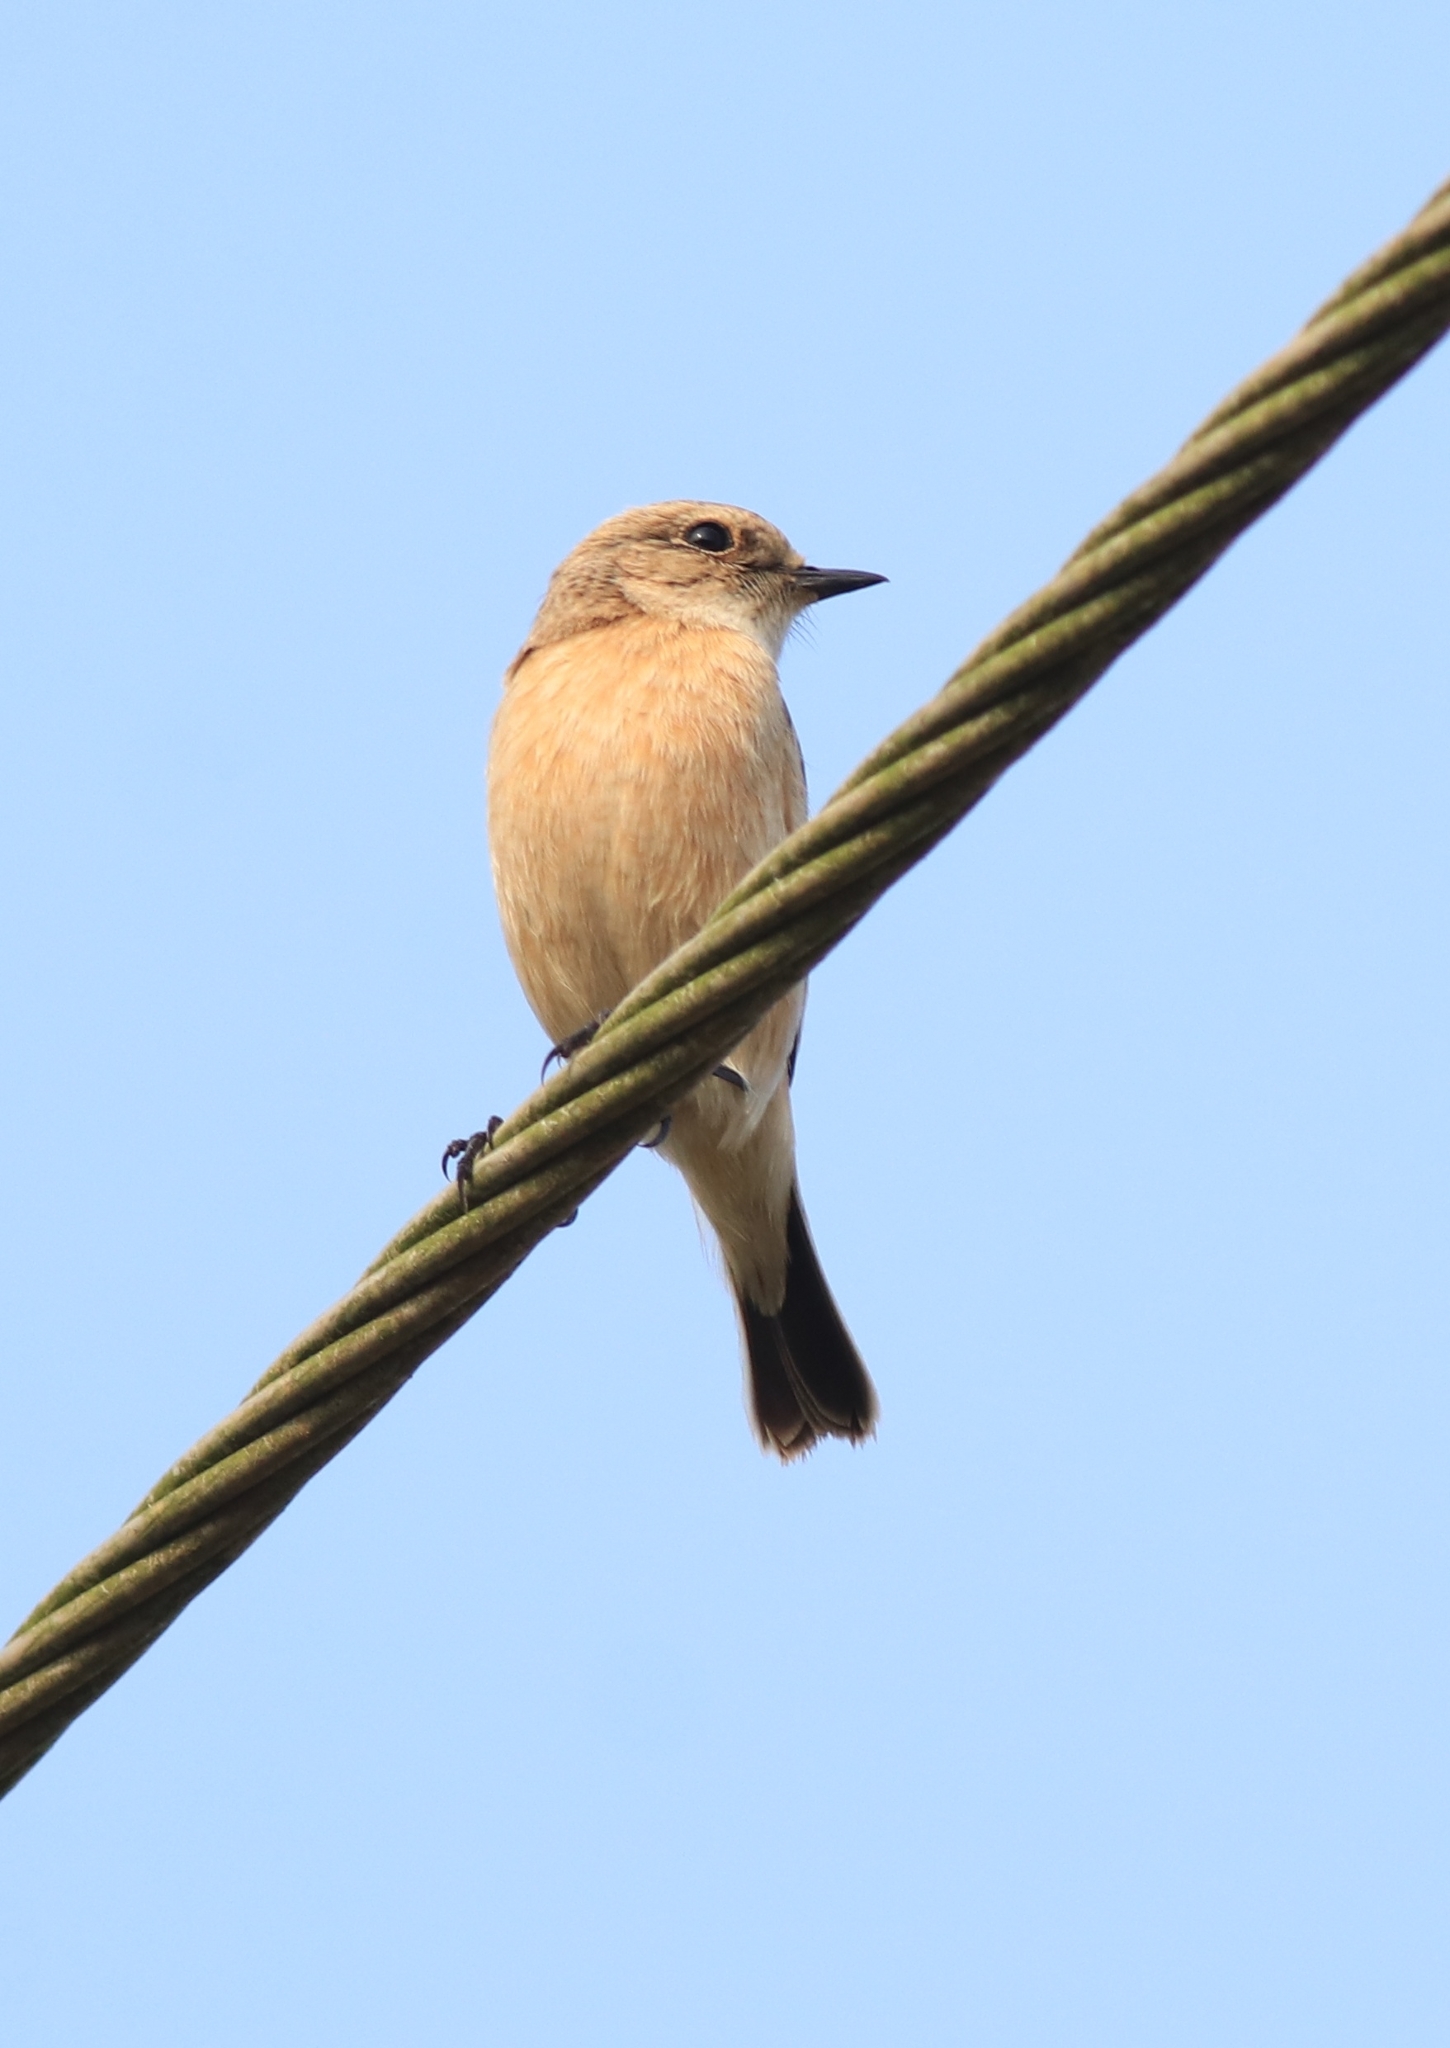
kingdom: Animalia
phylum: Chordata
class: Aves
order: Passeriformes
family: Muscicapidae
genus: Saxicola
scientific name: Saxicola maurus
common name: Siberian stonechat
